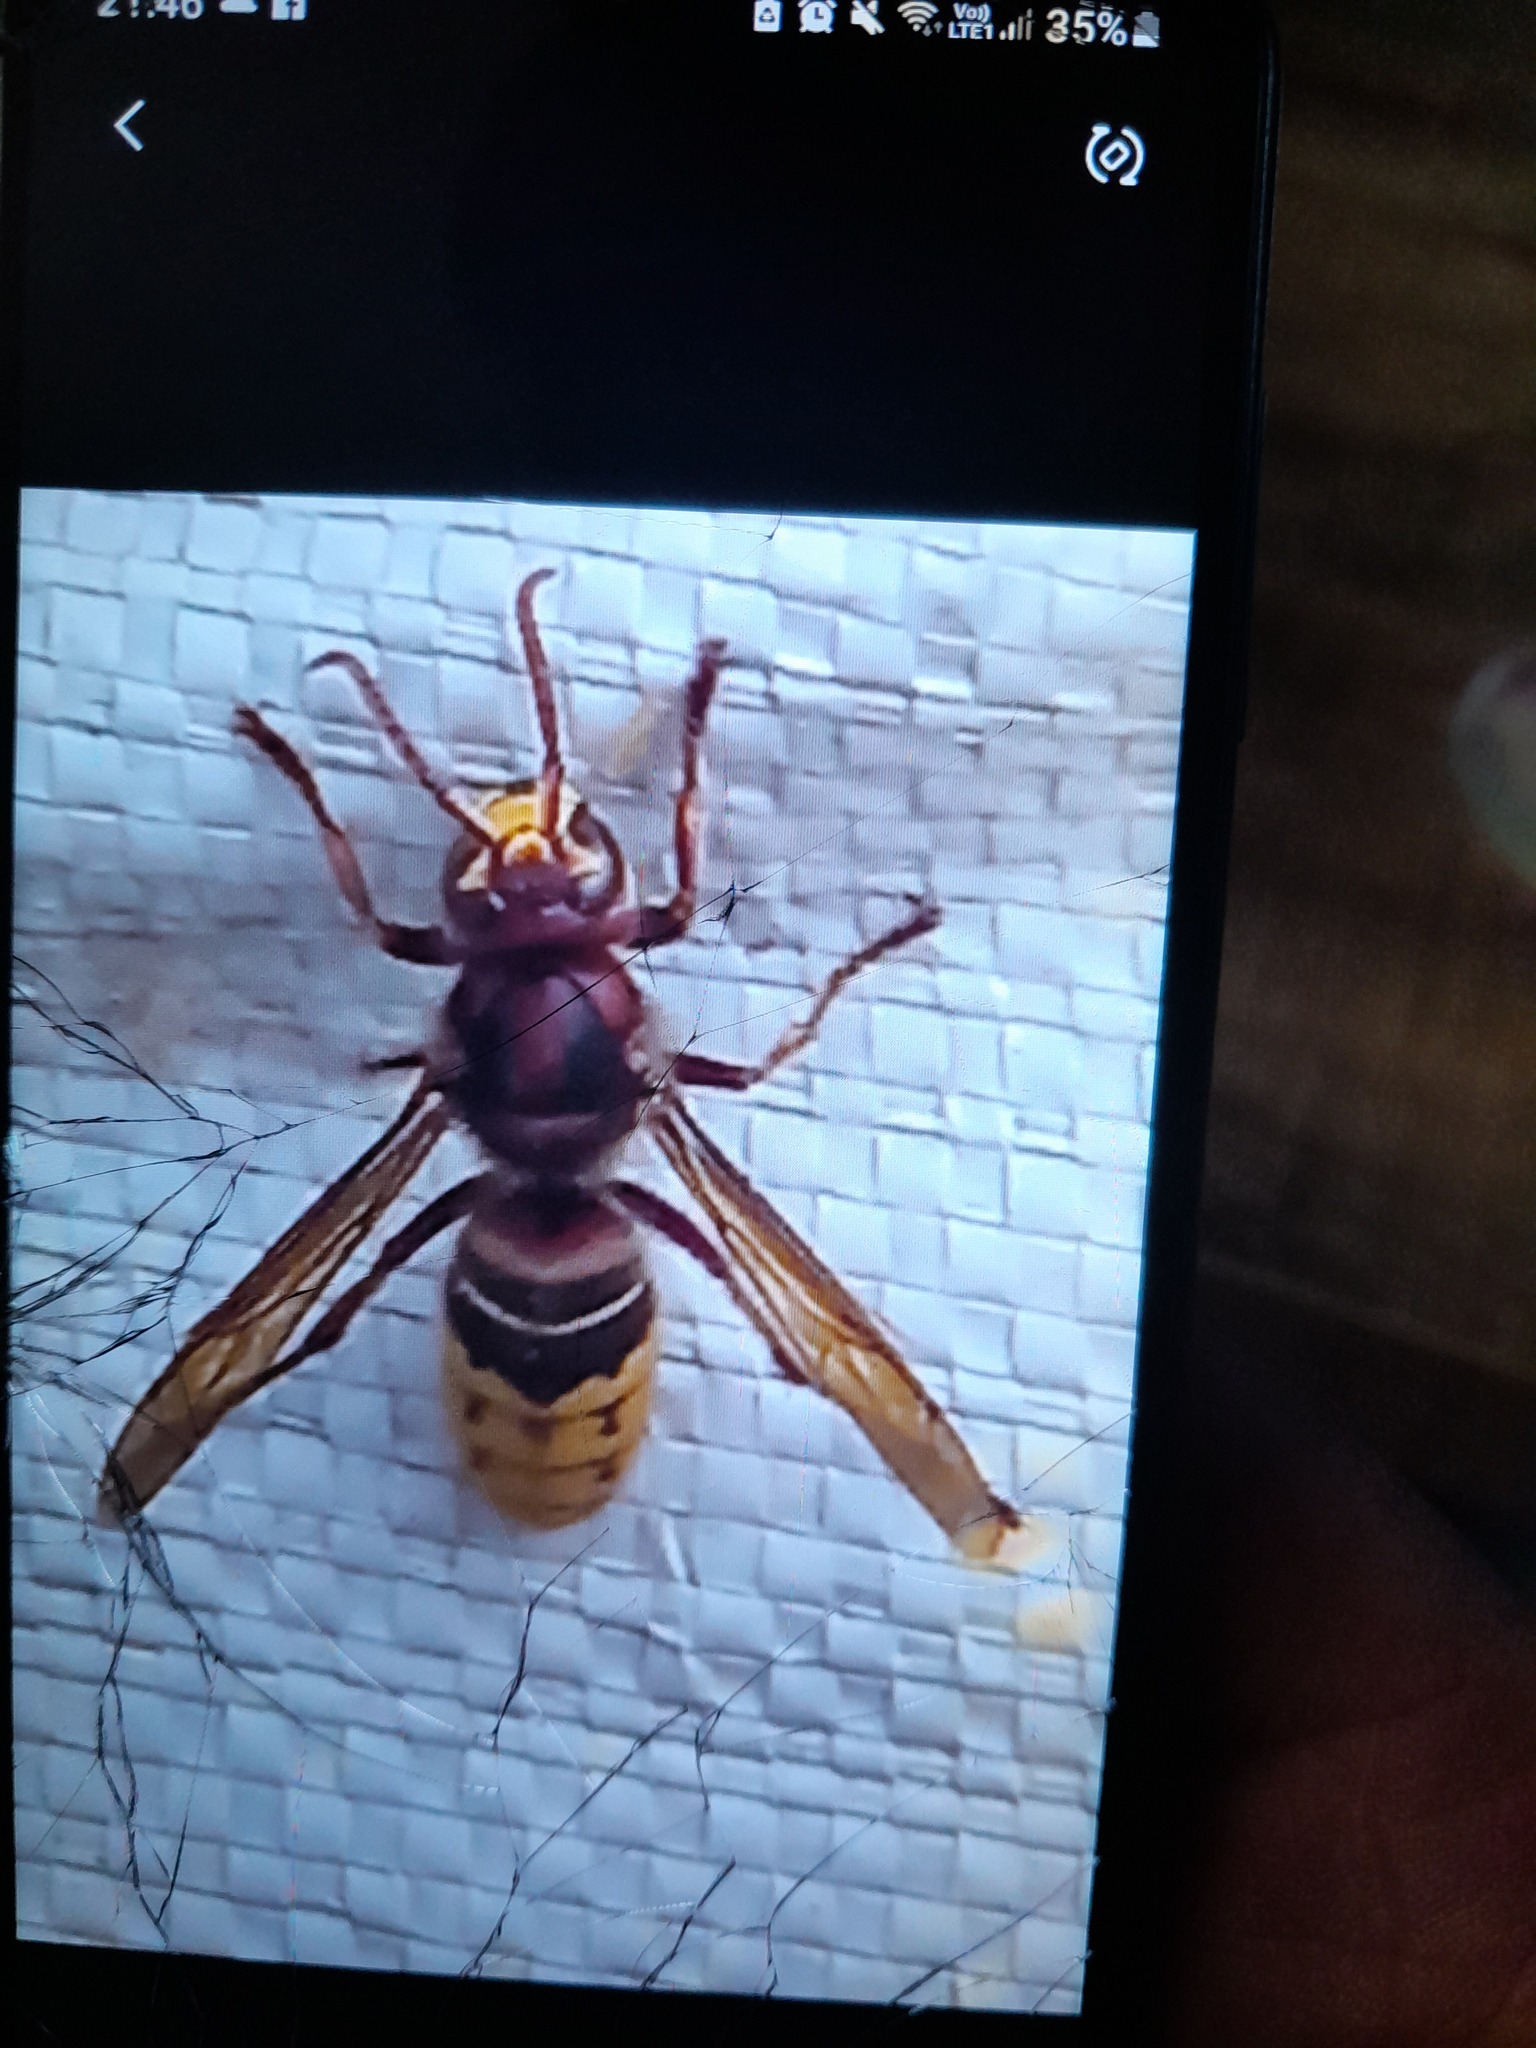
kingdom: Animalia
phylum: Arthropoda
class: Insecta
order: Hymenoptera
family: Vespidae
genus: Vespa
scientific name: Vespa crabro
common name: Hornet
